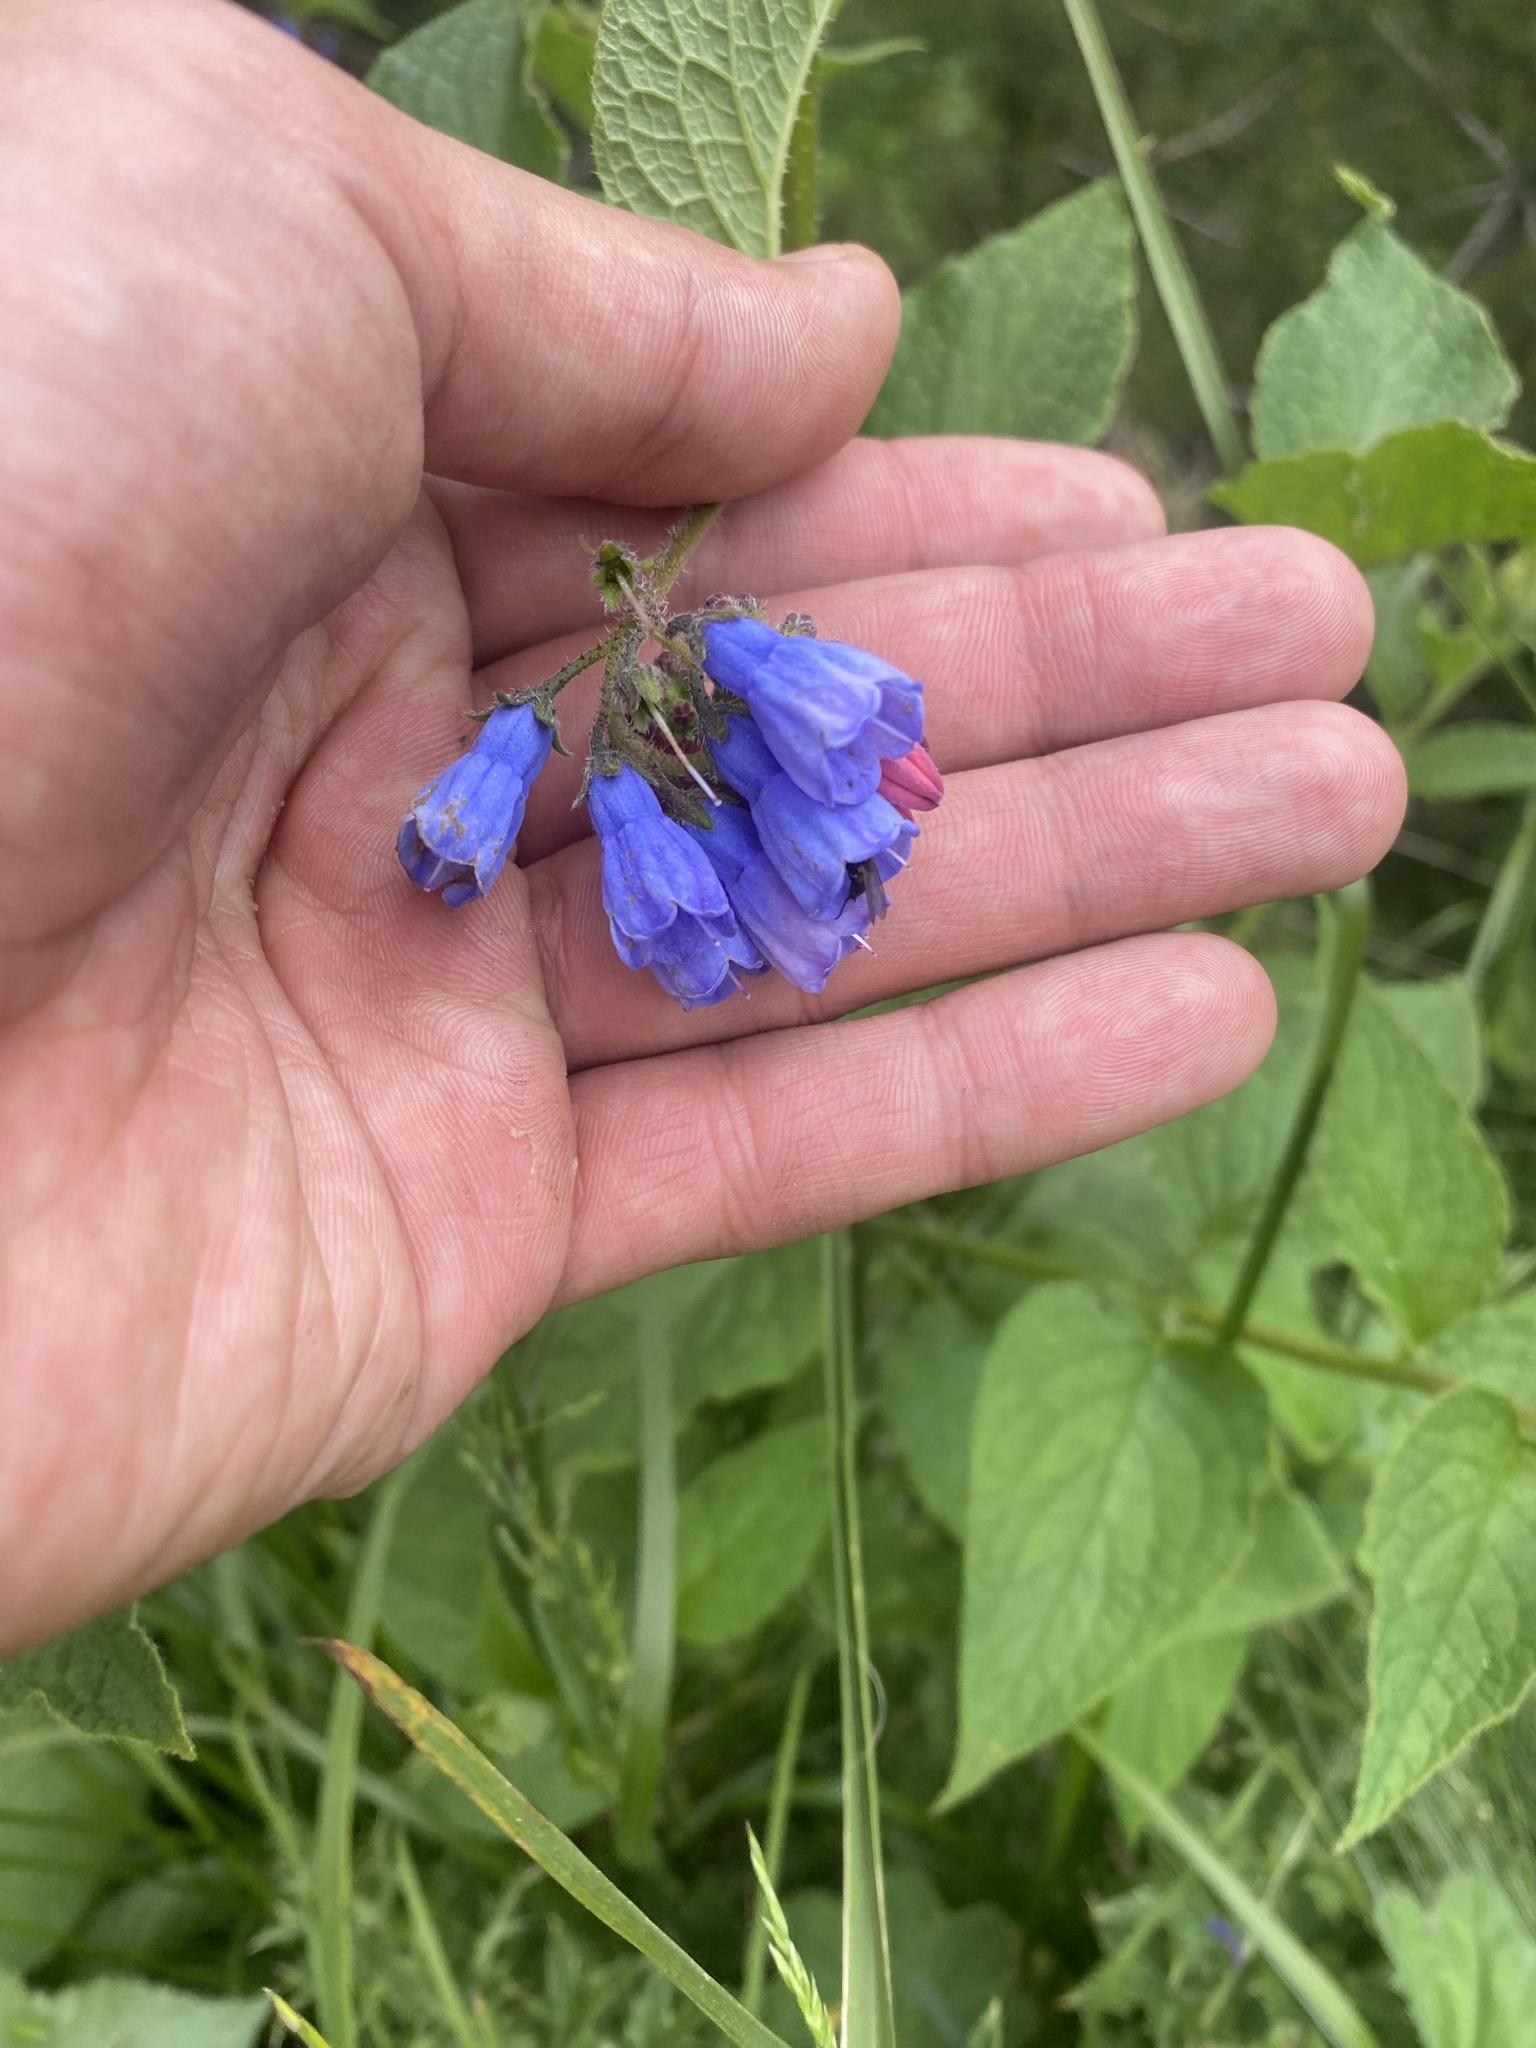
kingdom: Plantae
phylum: Tracheophyta
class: Magnoliopsida
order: Boraginales
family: Boraginaceae
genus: Symphytum
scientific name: Symphytum asperum
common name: Prickly comfrey
